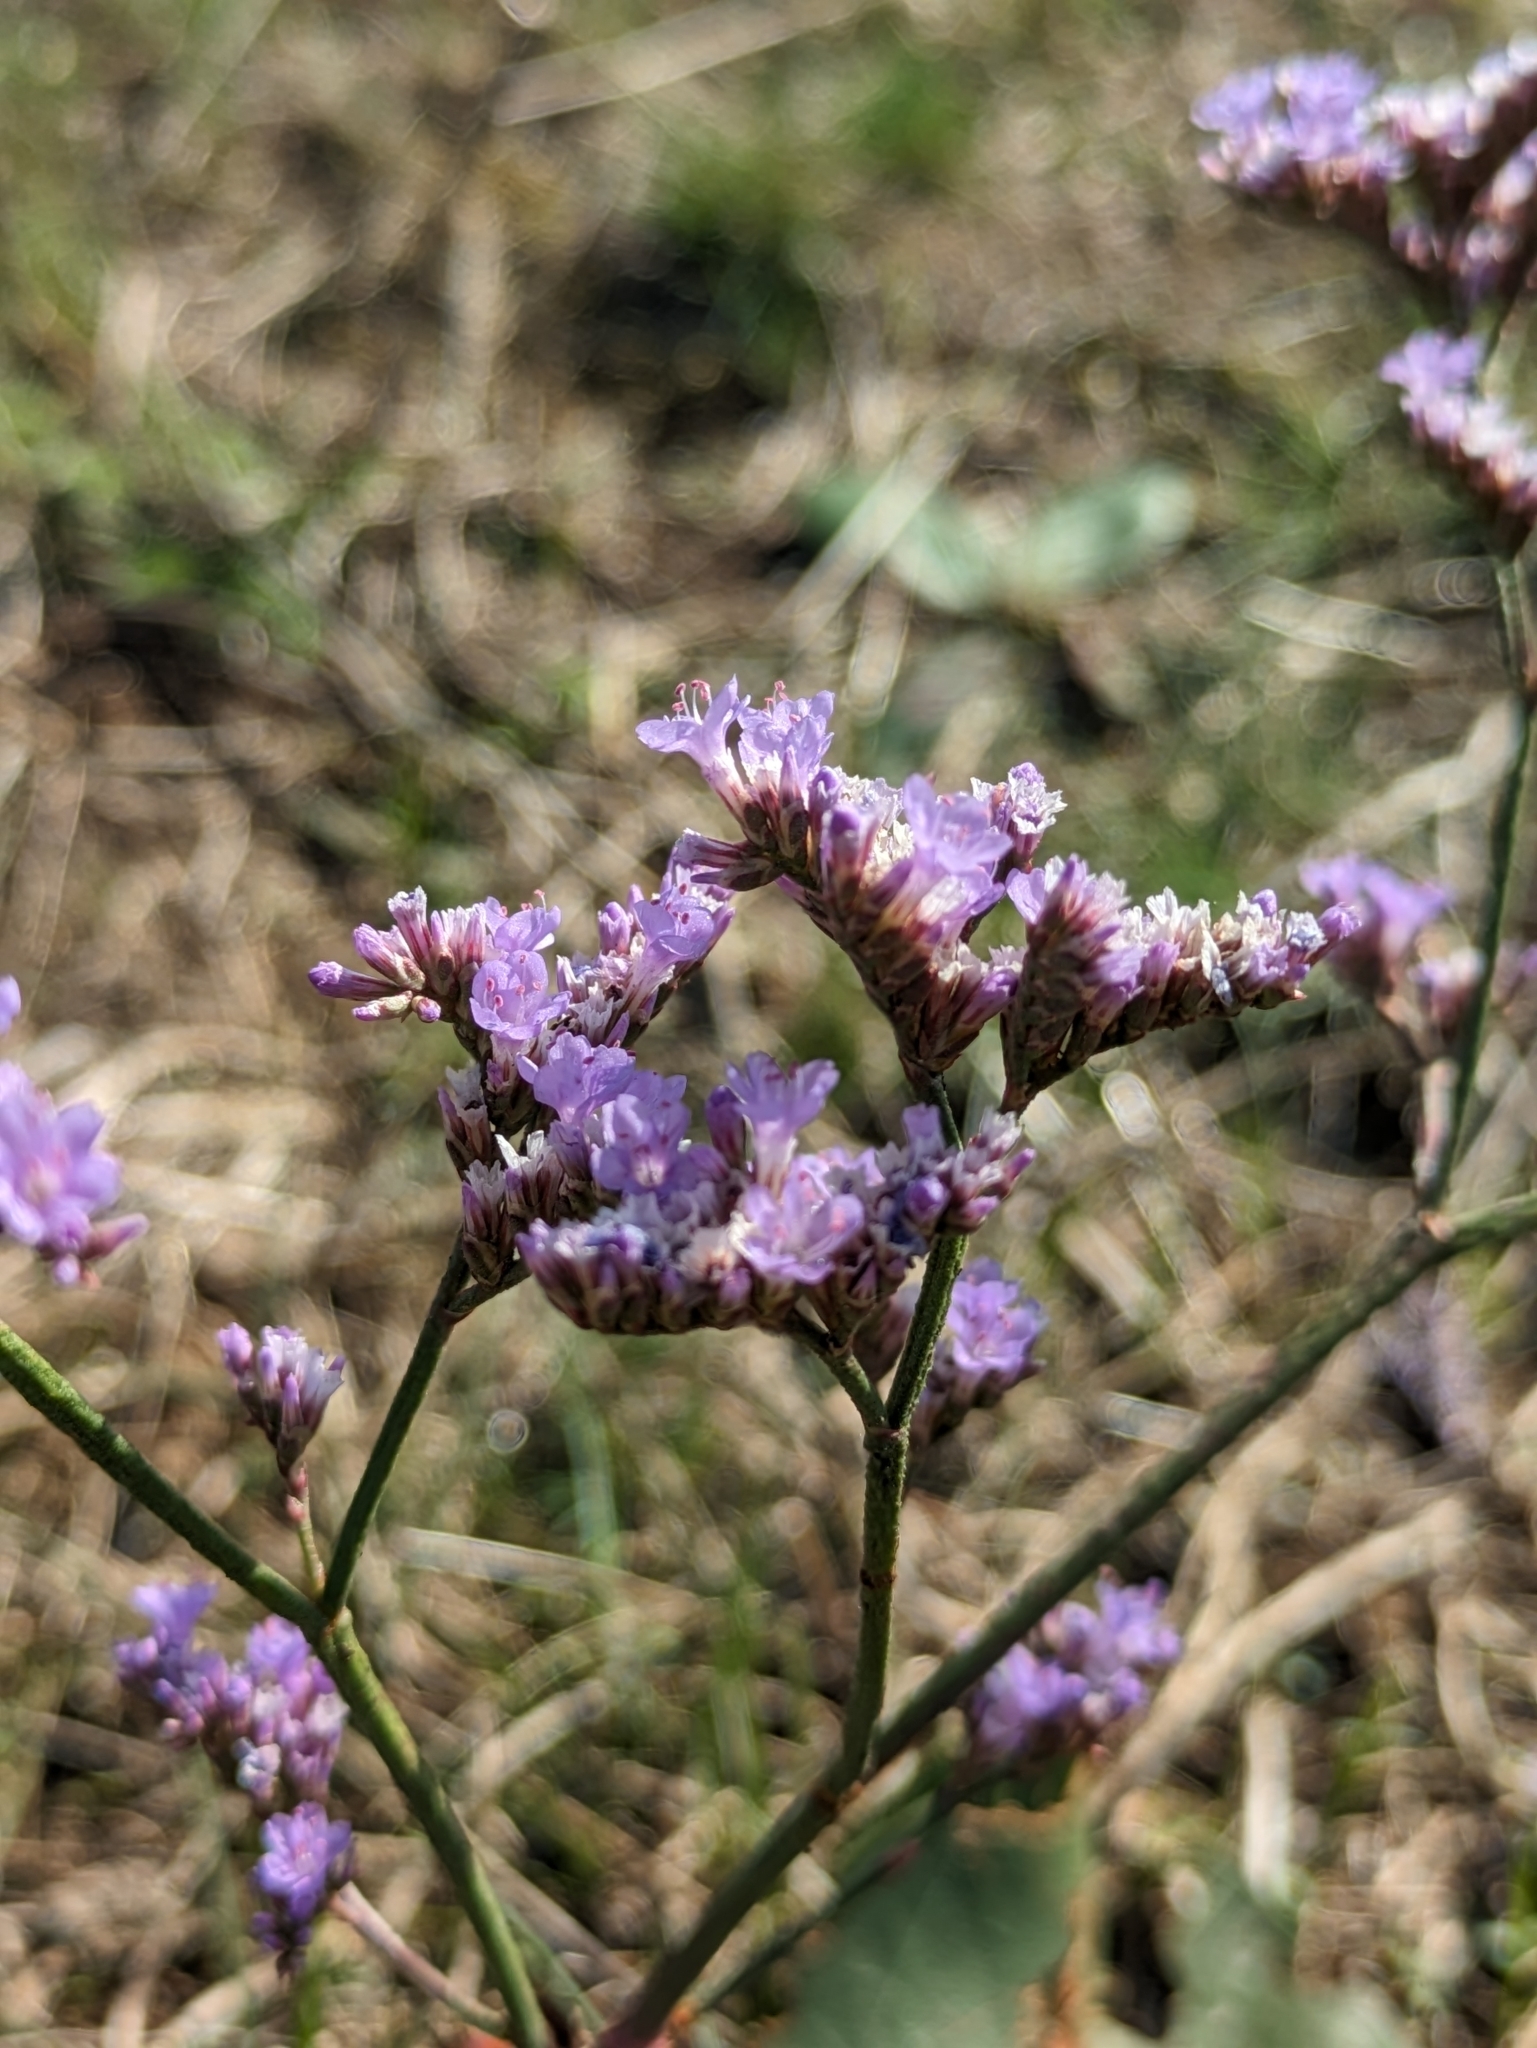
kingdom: Plantae
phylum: Tracheophyta
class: Magnoliopsida
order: Caryophyllales
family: Plumbaginaceae
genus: Limonium
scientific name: Limonium gmelini
